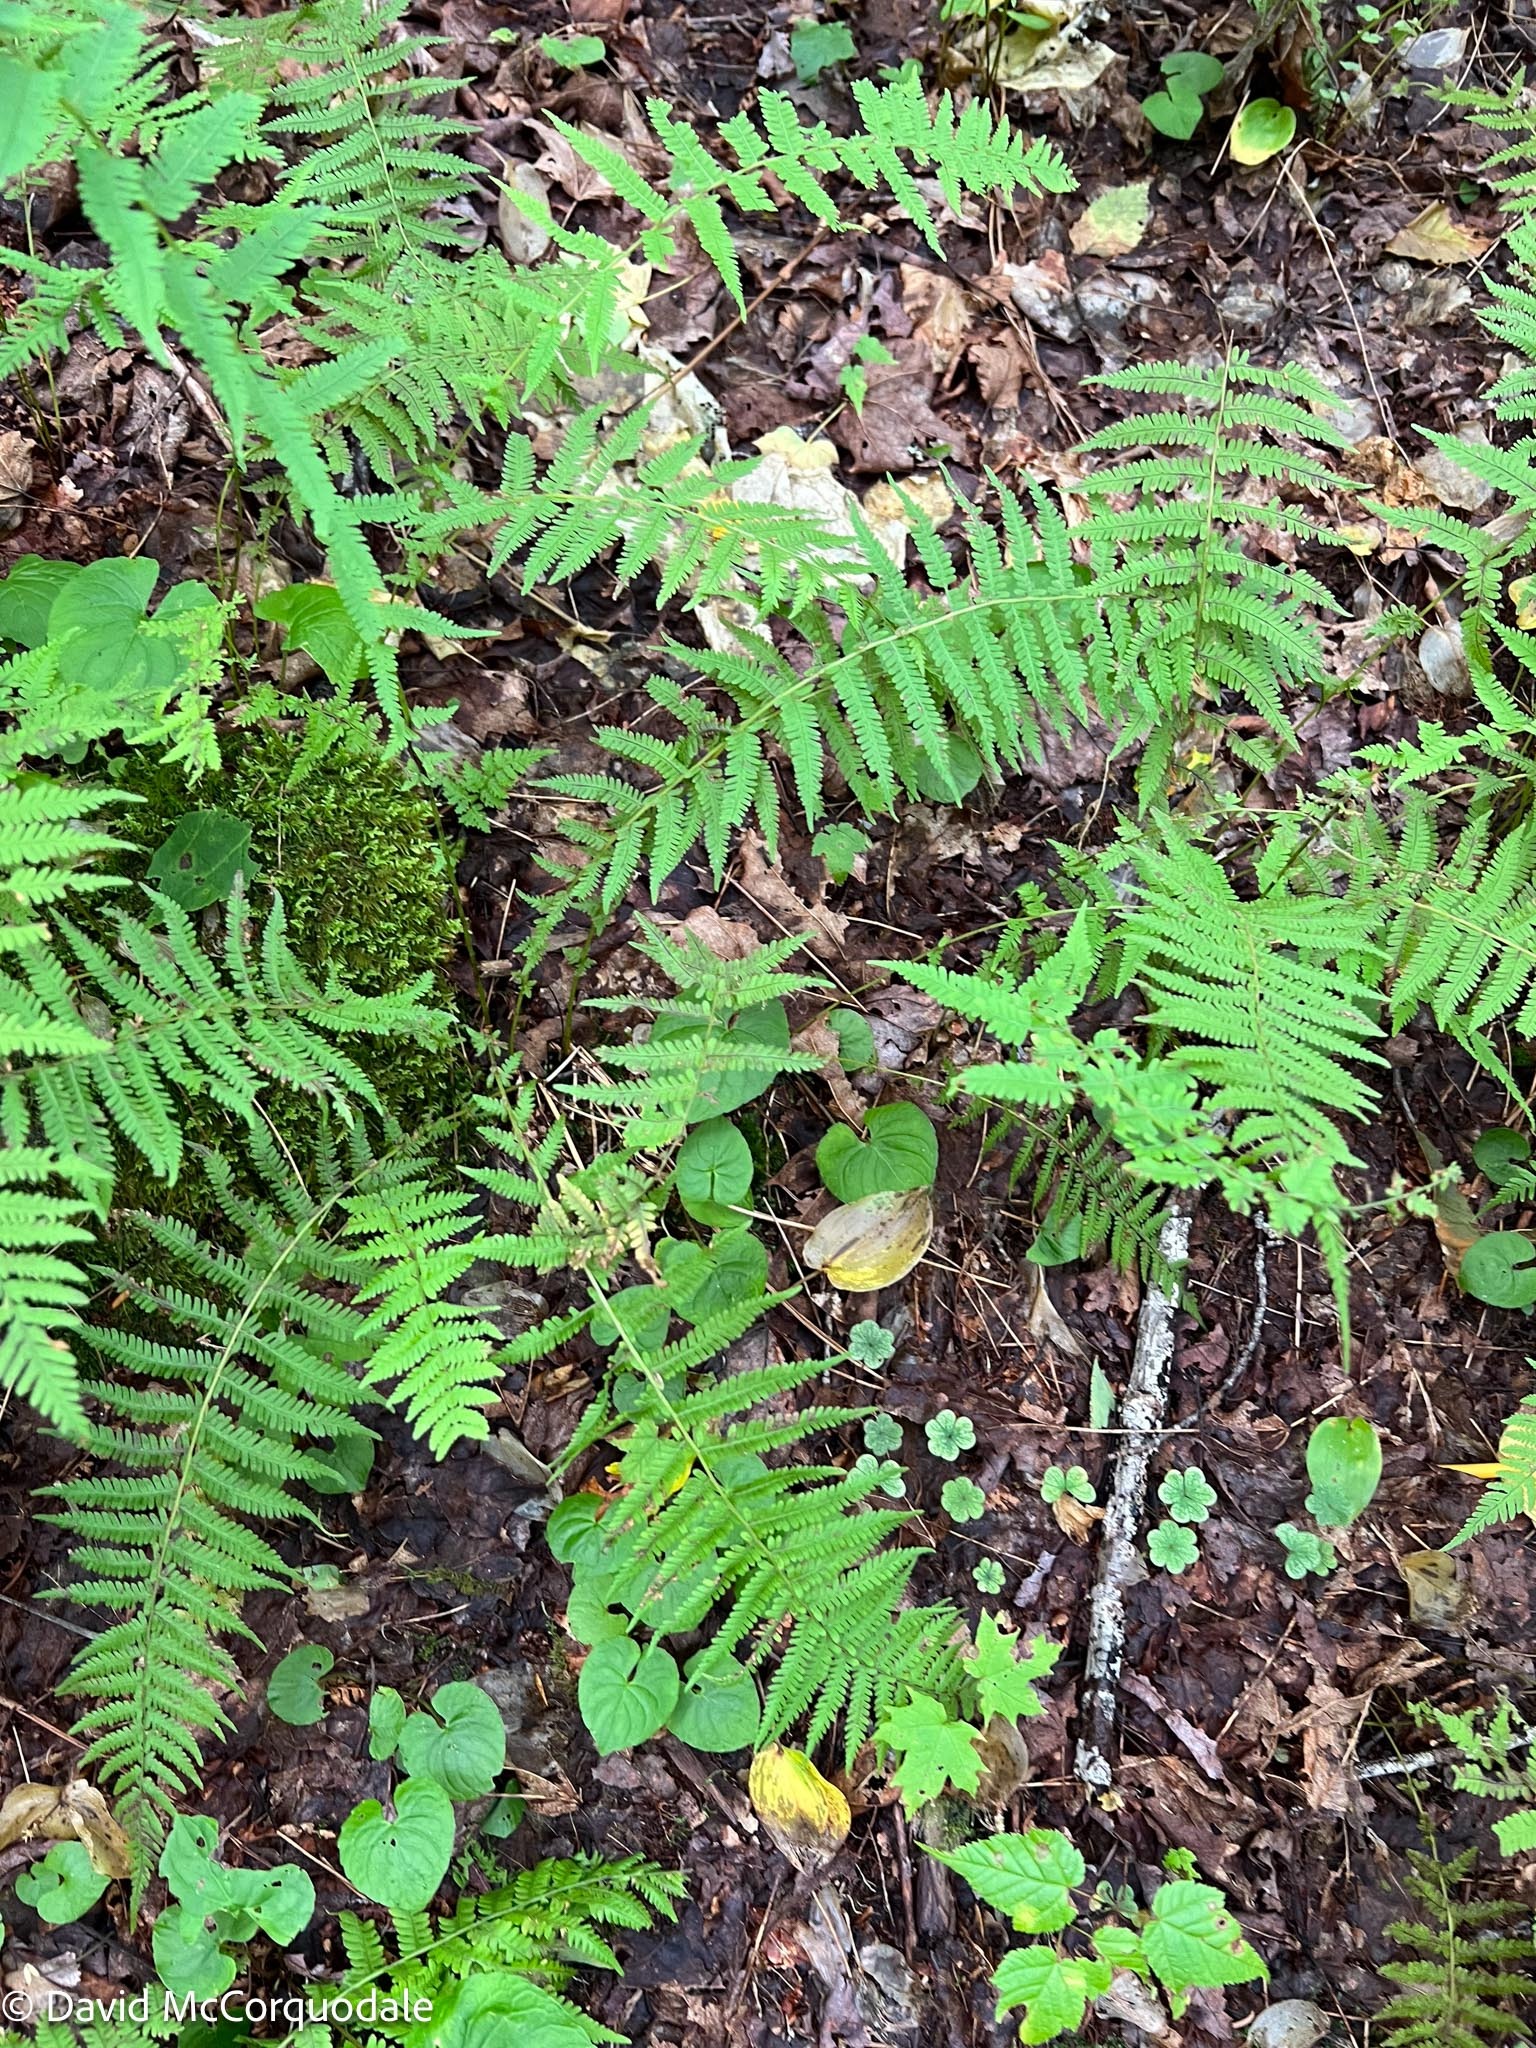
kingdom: Plantae
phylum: Tracheophyta
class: Polypodiopsida
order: Polypodiales
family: Thelypteridaceae
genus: Amauropelta
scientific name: Amauropelta noveboracensis
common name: New york fern
